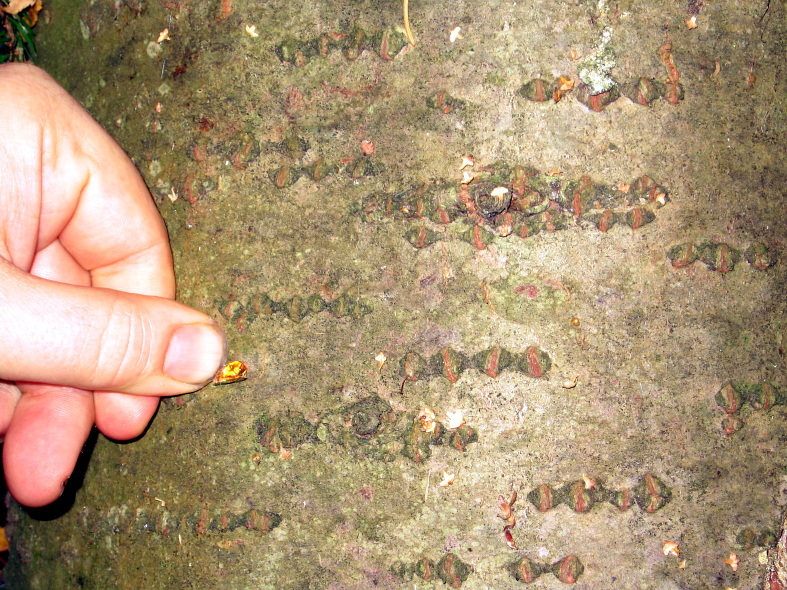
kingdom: Plantae
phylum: Tracheophyta
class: Pinopsida
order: Pinales
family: Pinaceae
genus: Abies
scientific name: Abies sibirica
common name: Siberian fir
